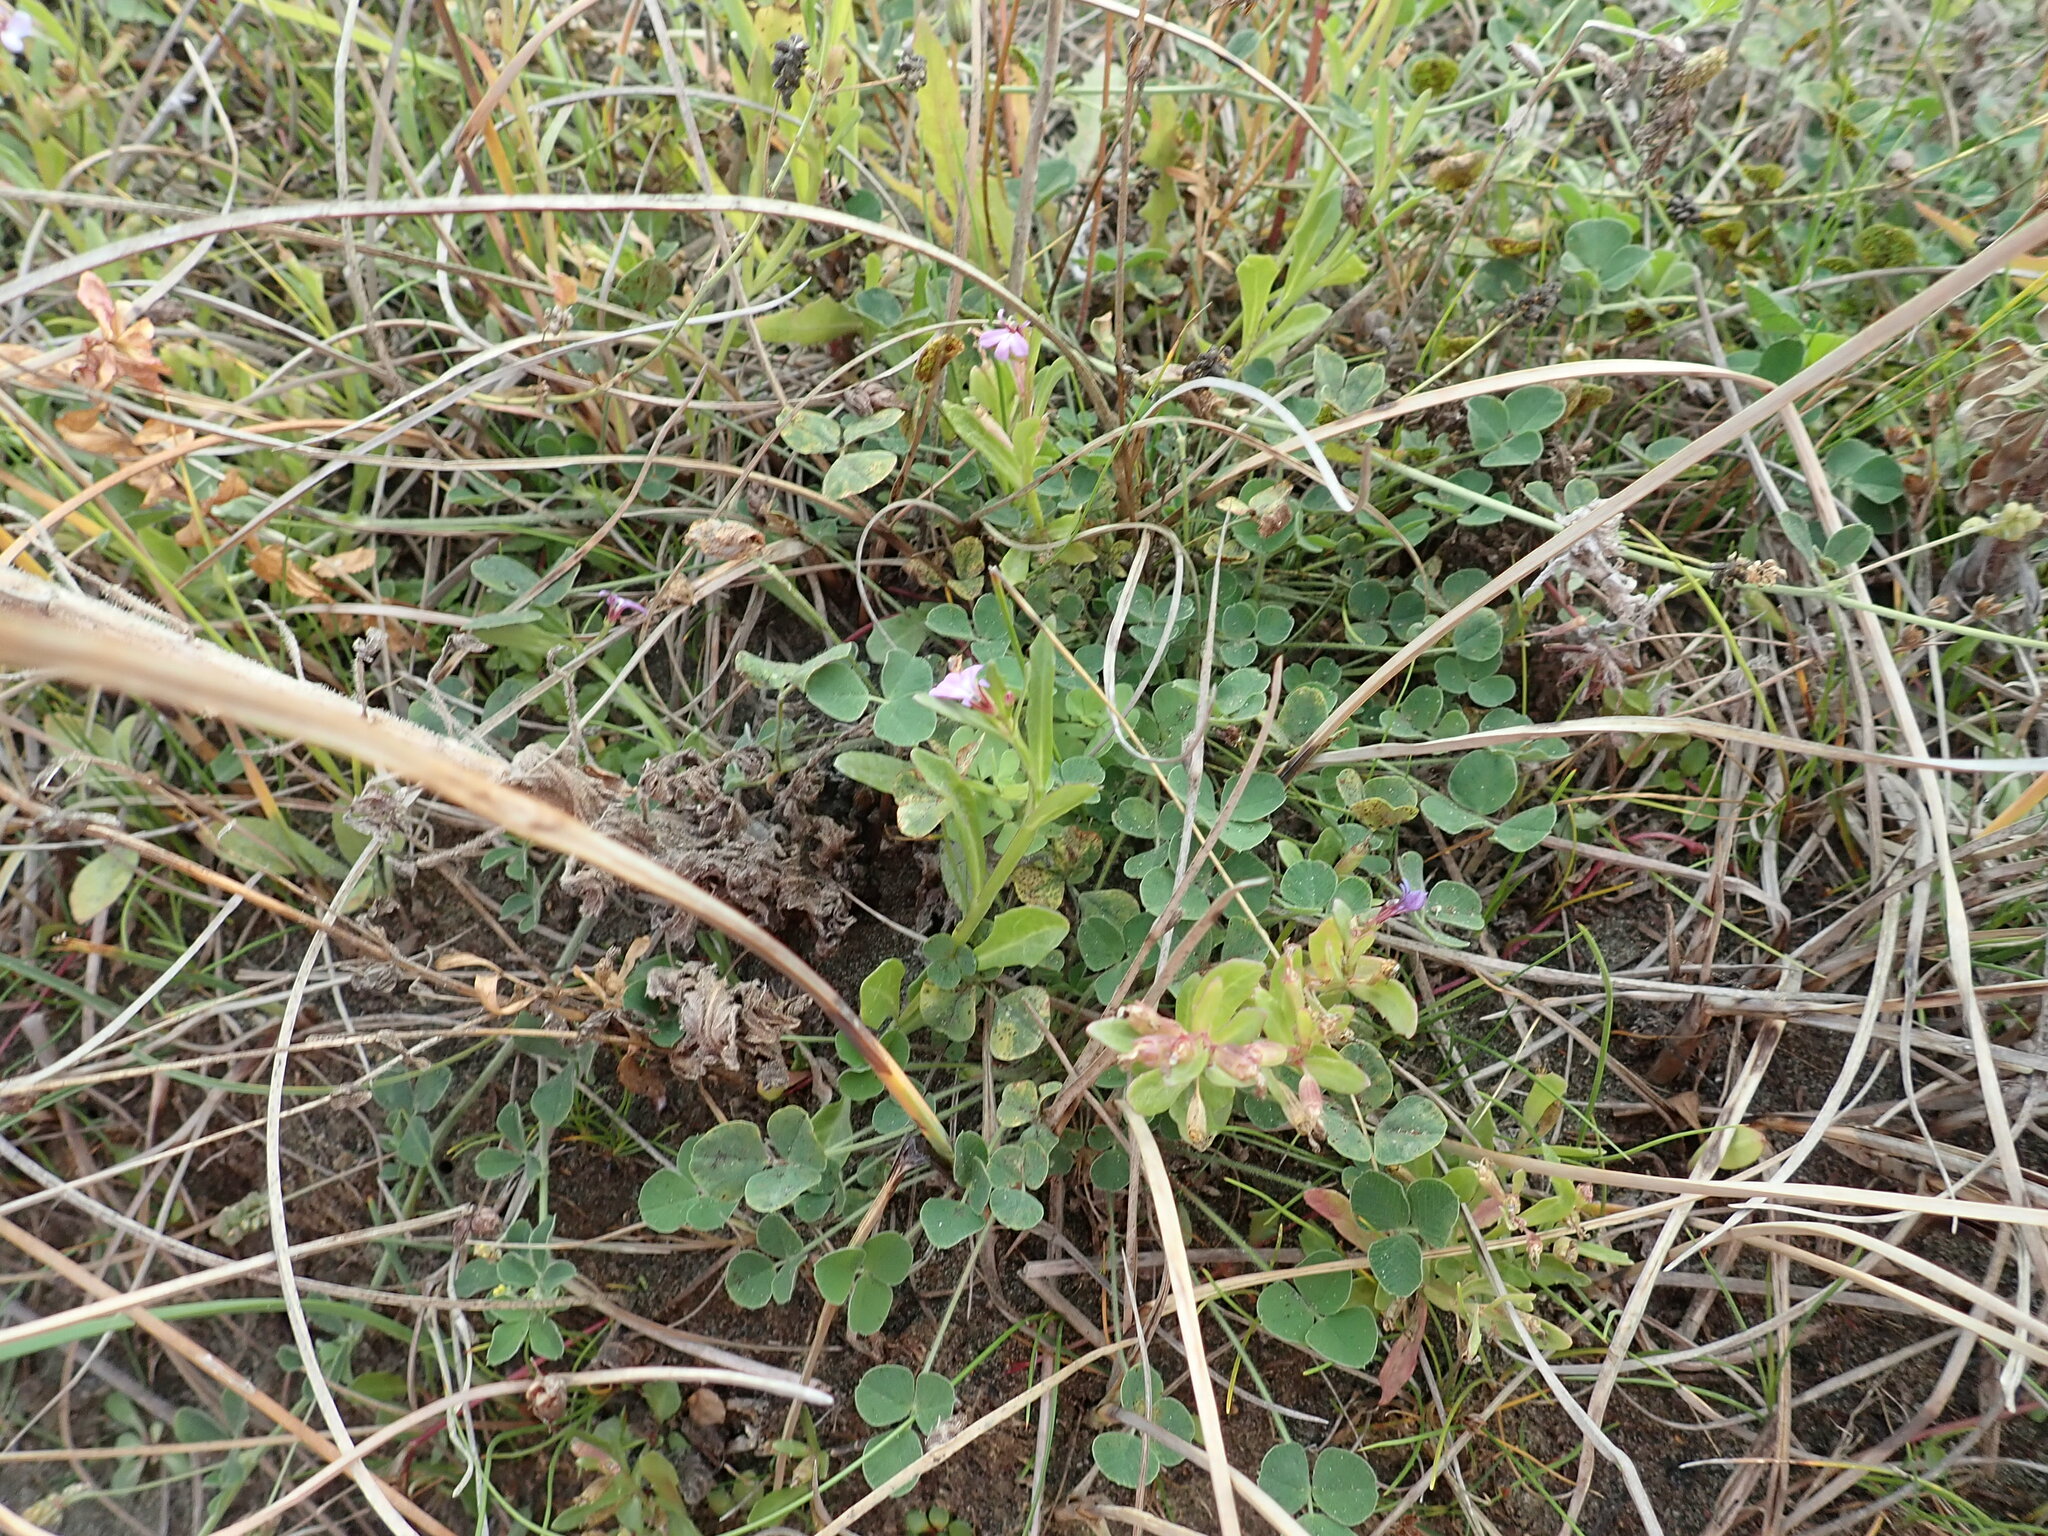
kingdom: Plantae
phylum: Tracheophyta
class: Magnoliopsida
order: Asterales
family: Campanulaceae
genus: Lobelia
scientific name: Lobelia anceps
